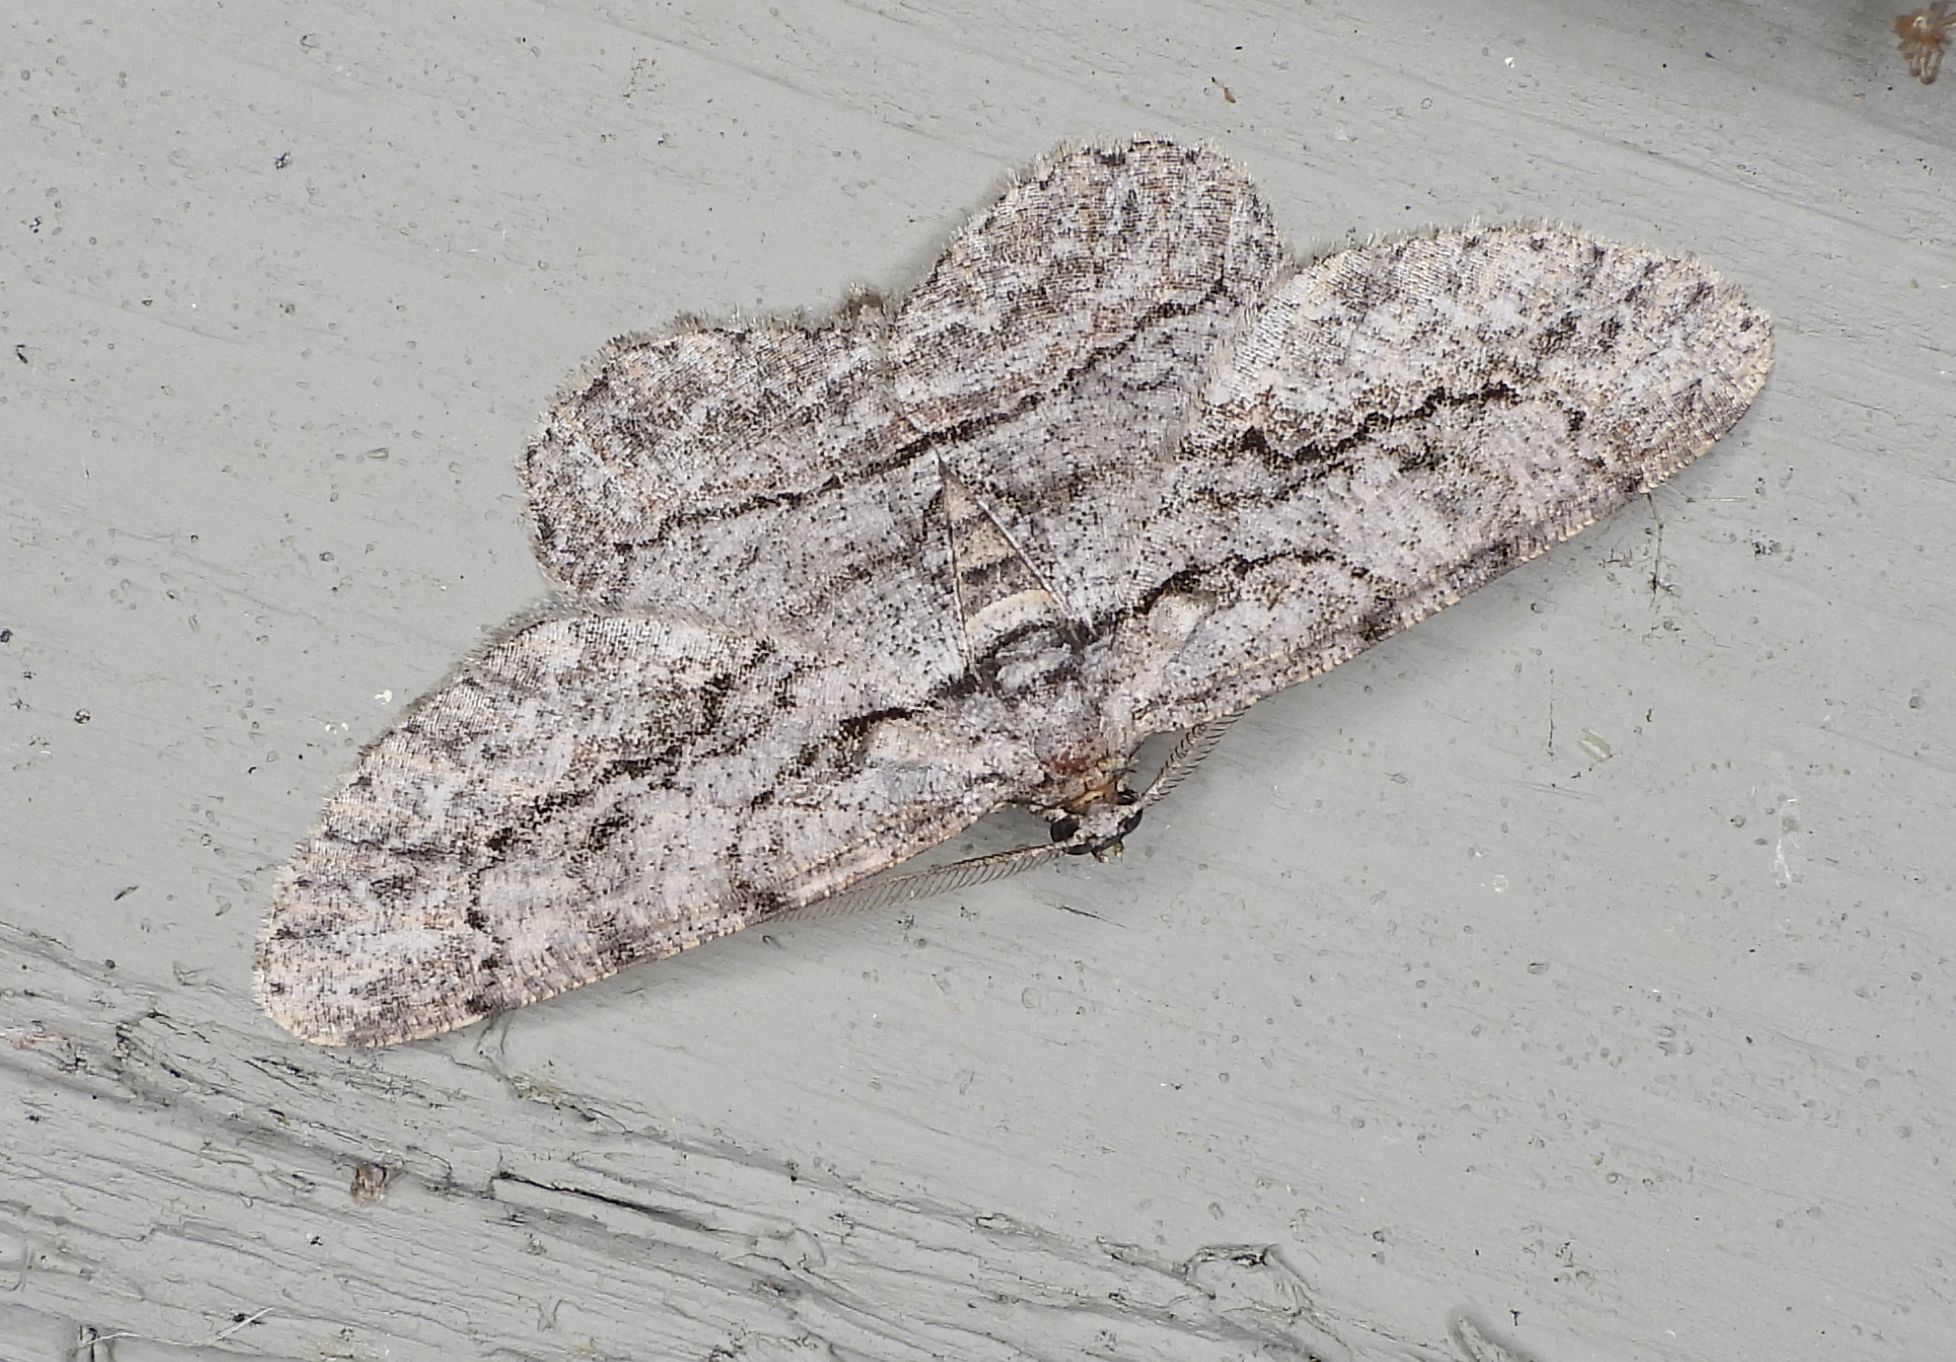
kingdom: Animalia
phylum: Arthropoda
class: Insecta
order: Lepidoptera
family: Geometridae
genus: Anavitrinella
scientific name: Anavitrinella pampinaria
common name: Common gray
